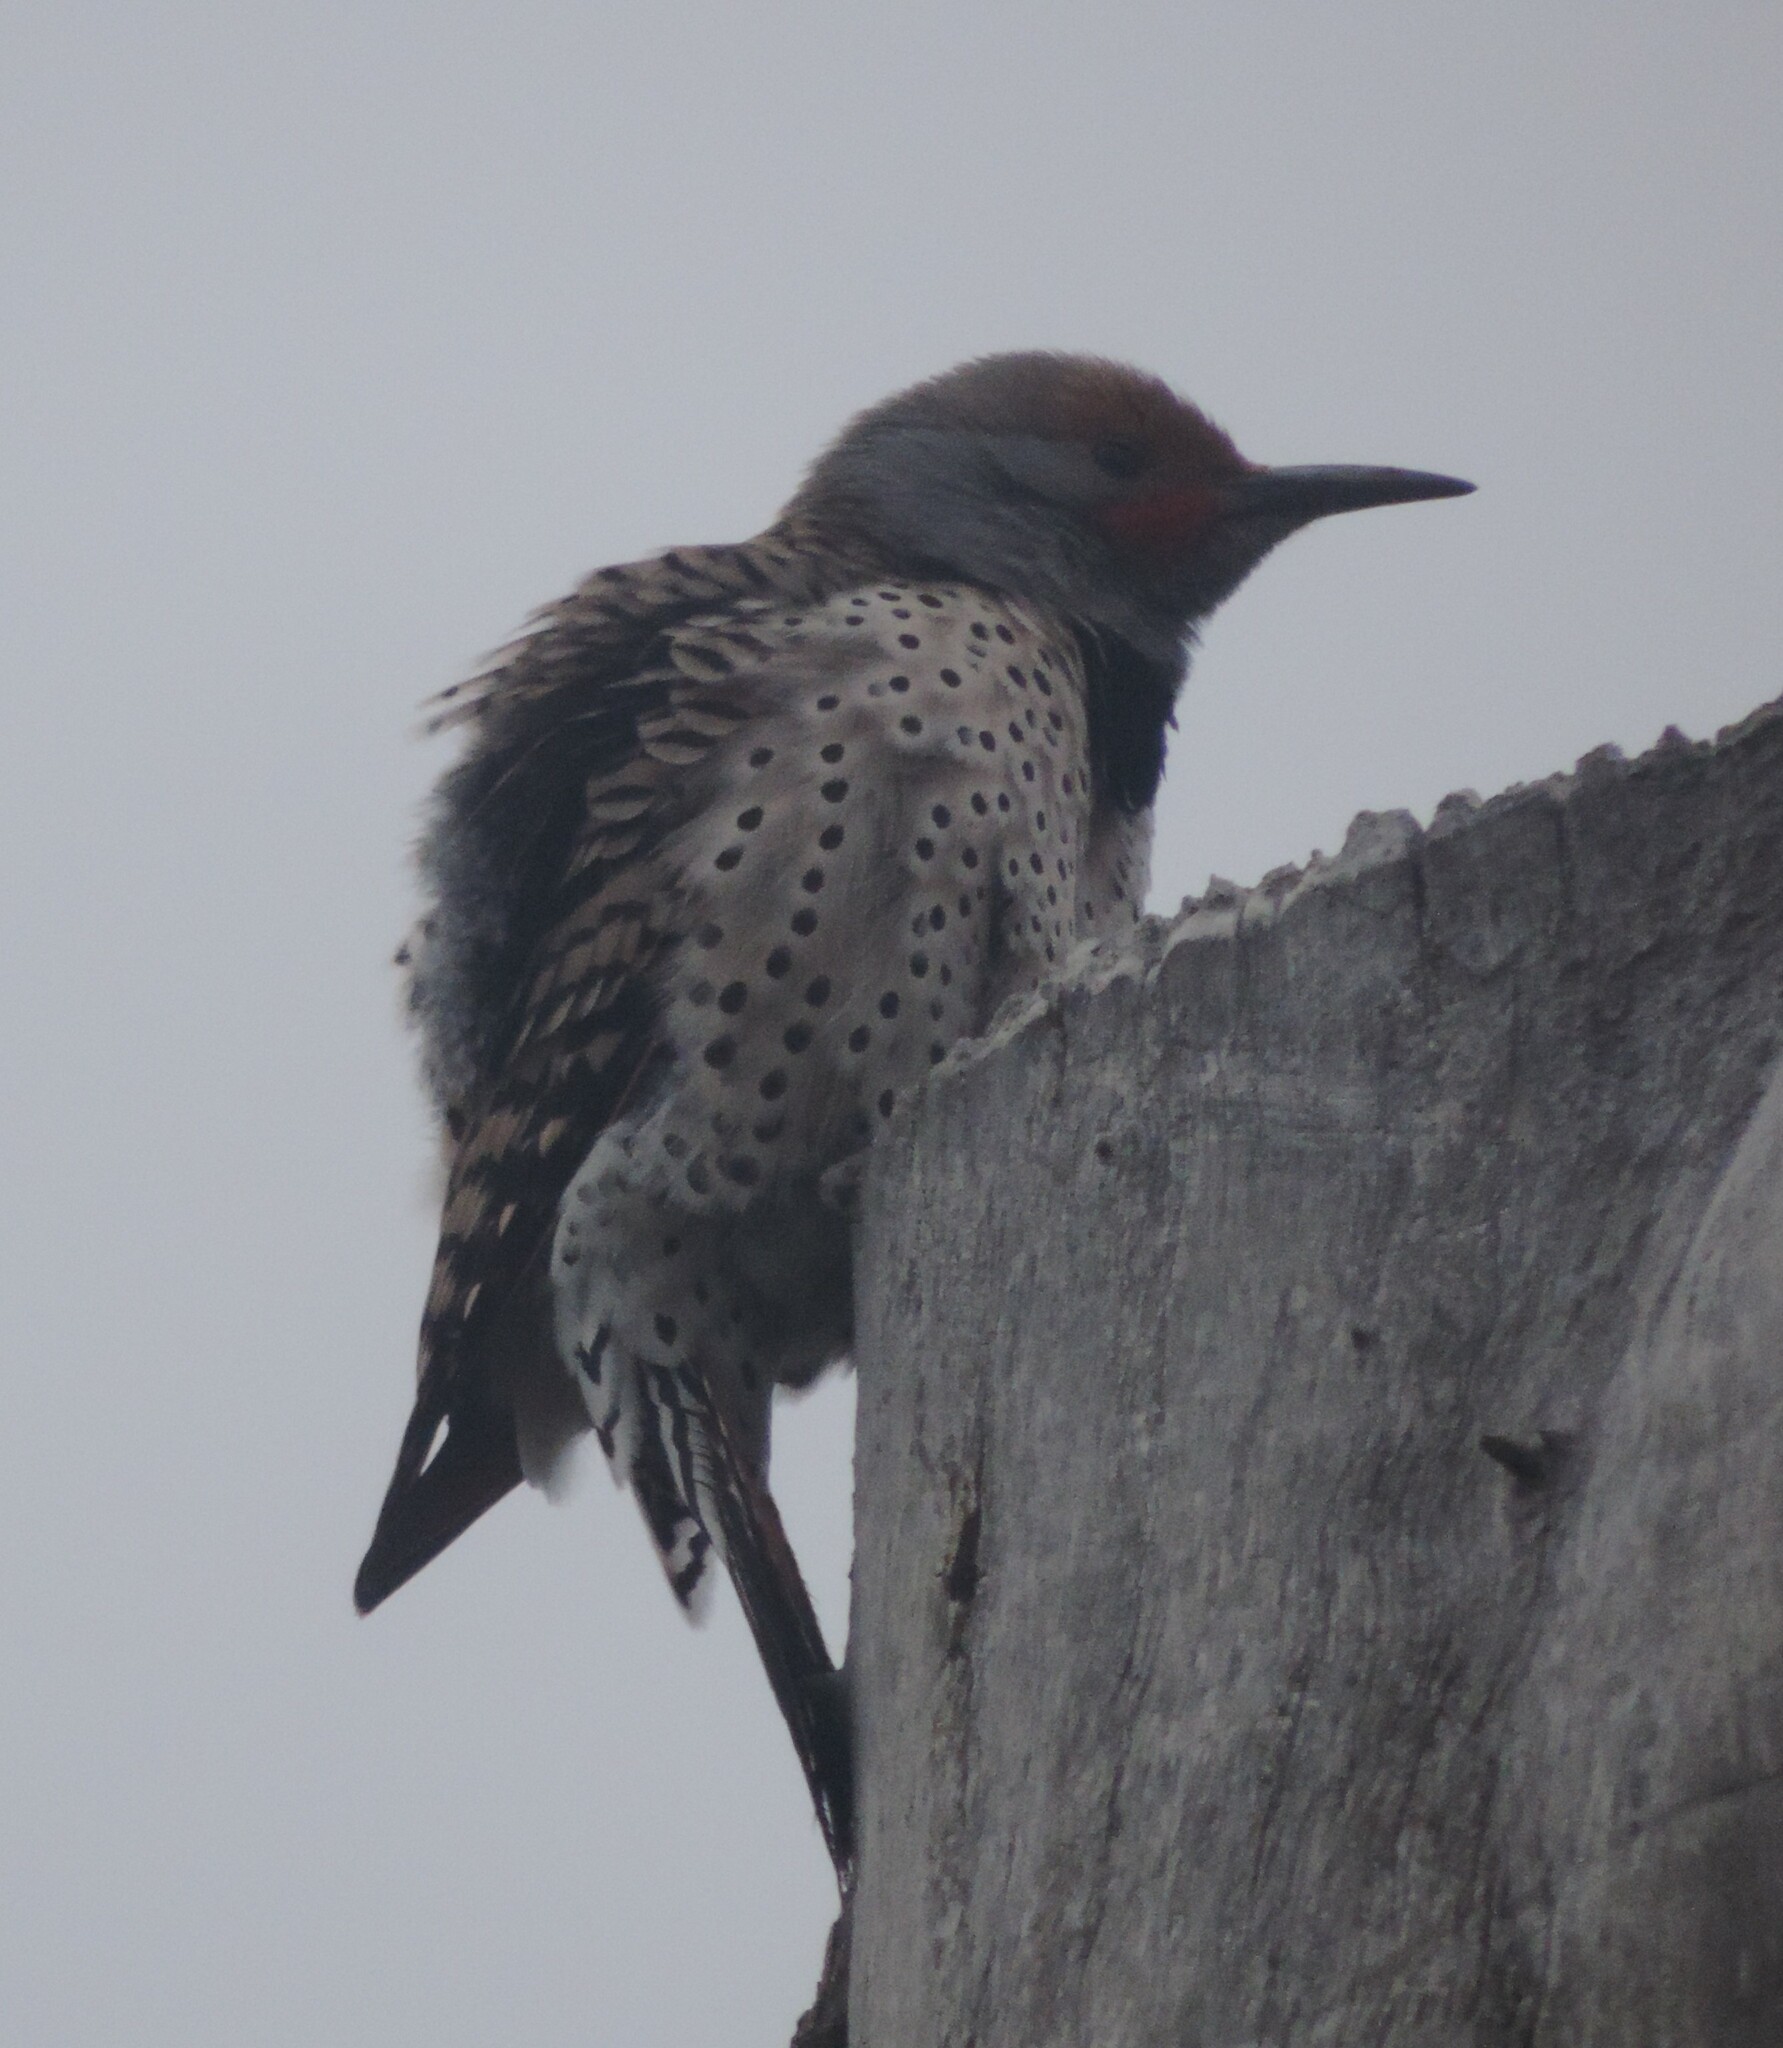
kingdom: Animalia
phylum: Chordata
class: Aves
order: Piciformes
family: Picidae
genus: Colaptes
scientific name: Colaptes auratus
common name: Northern flicker
